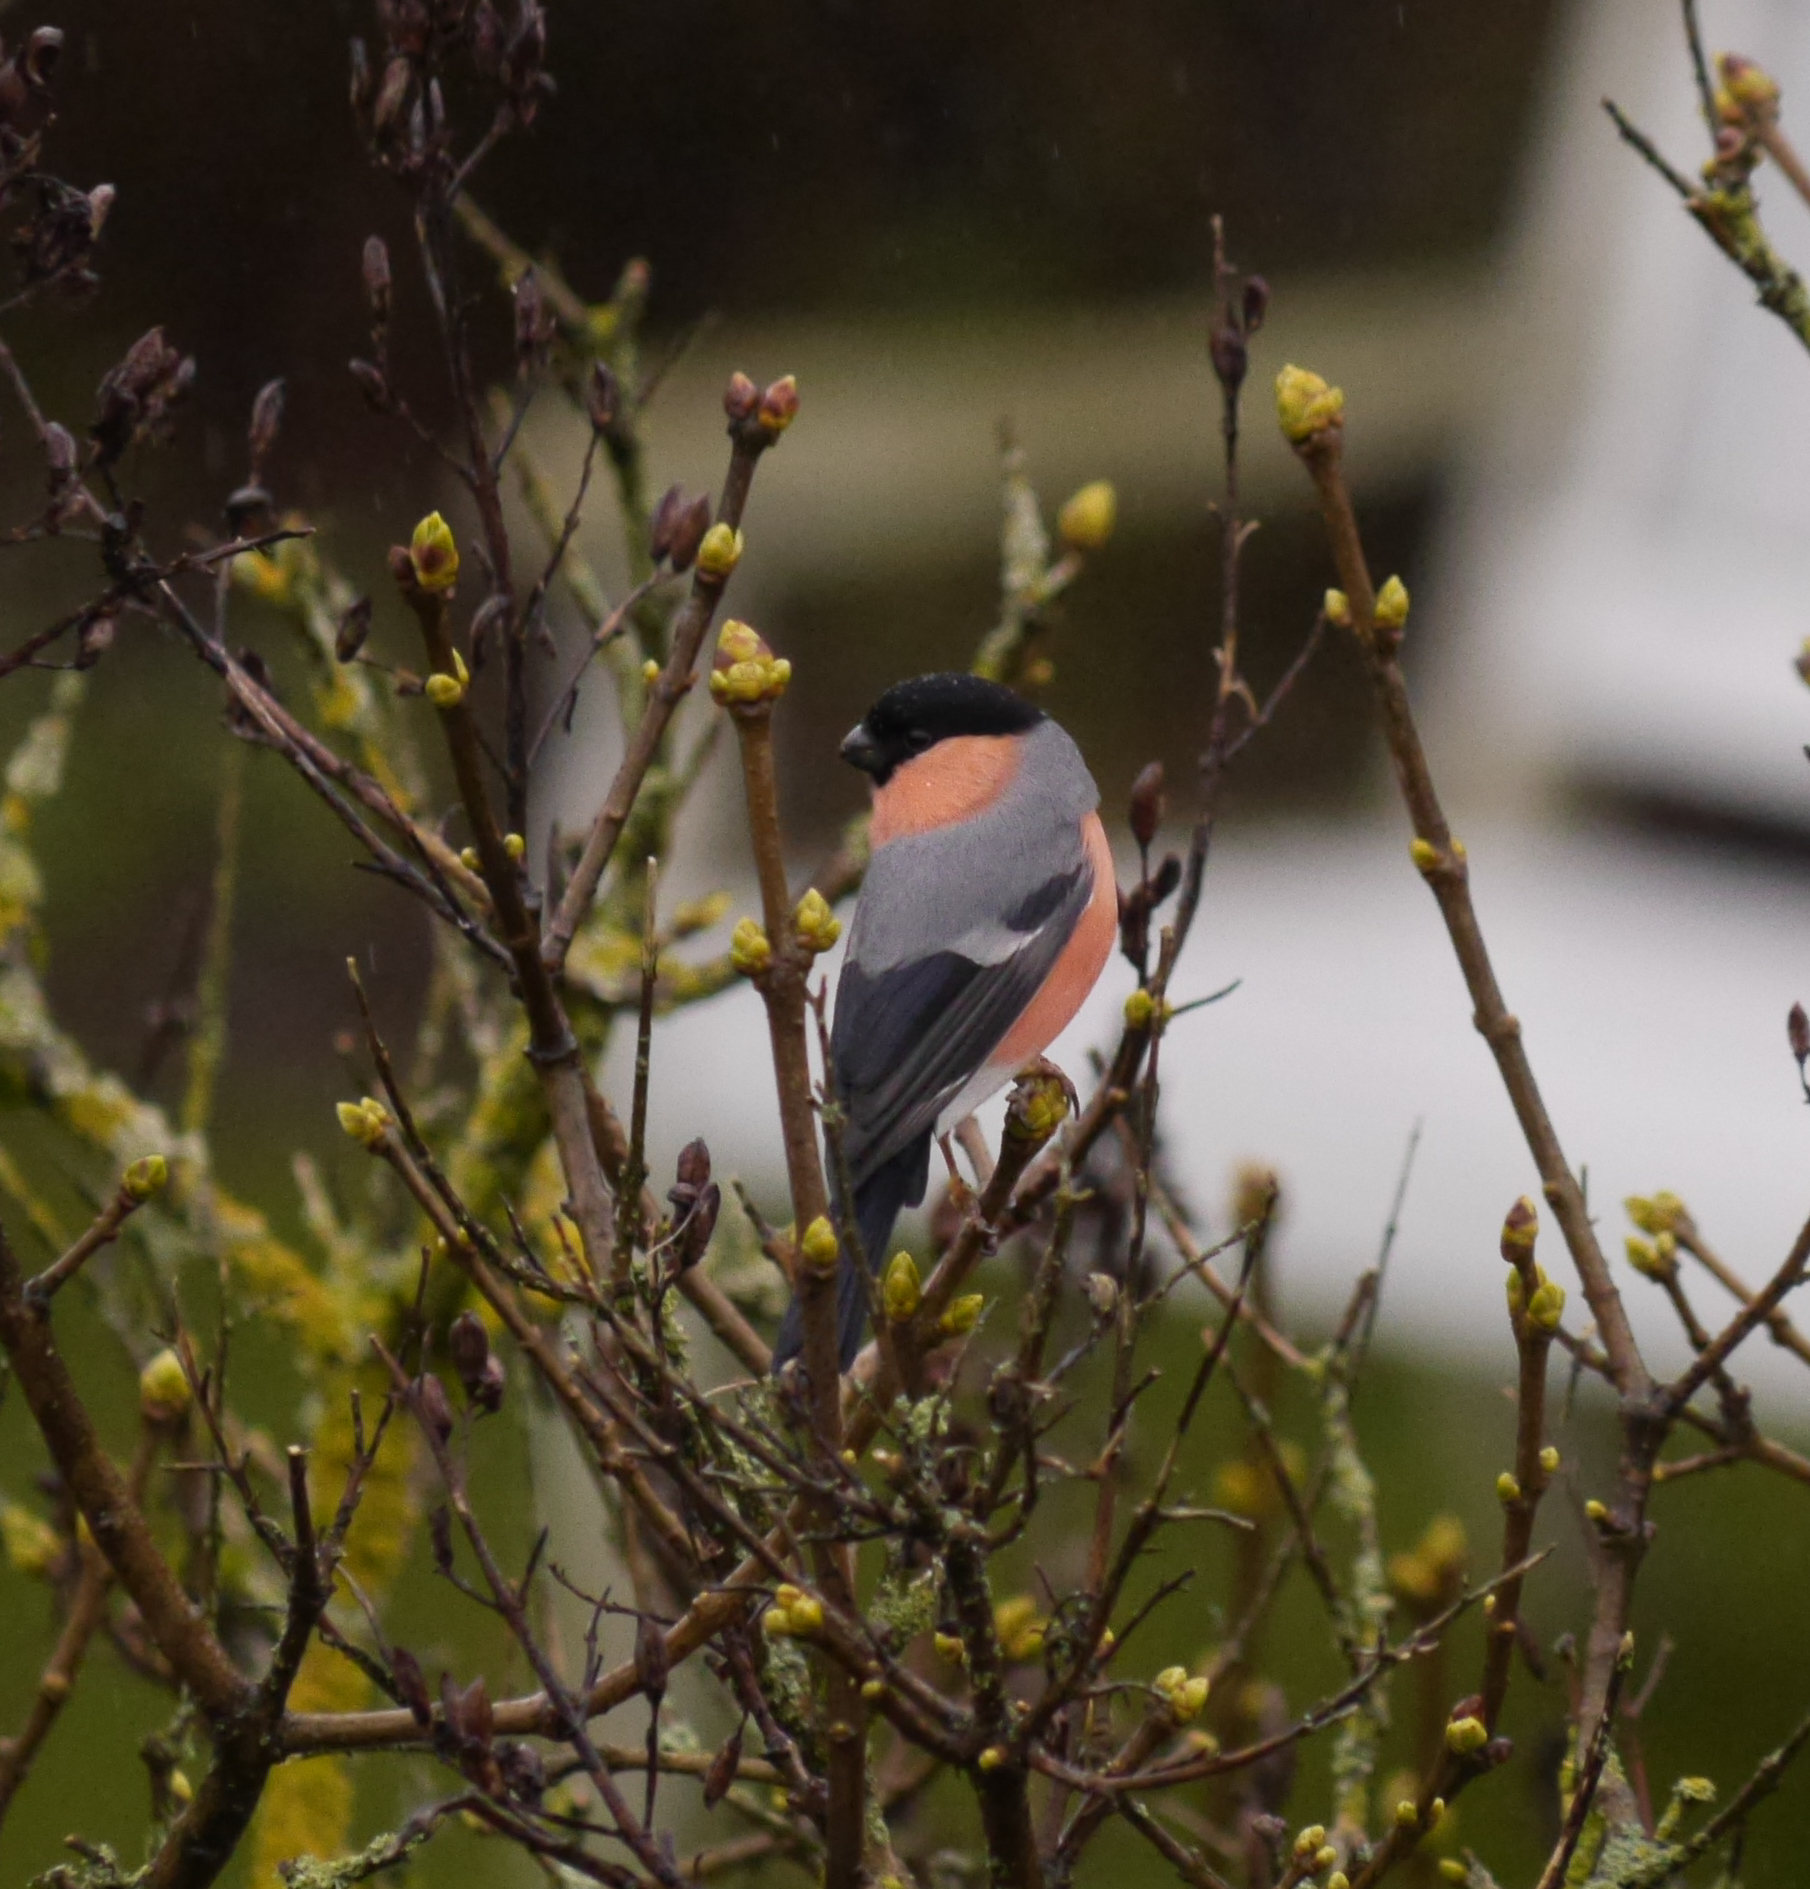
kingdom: Animalia
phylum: Chordata
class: Aves
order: Passeriformes
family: Fringillidae
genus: Pyrrhula
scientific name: Pyrrhula pyrrhula
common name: Eurasian bullfinch
